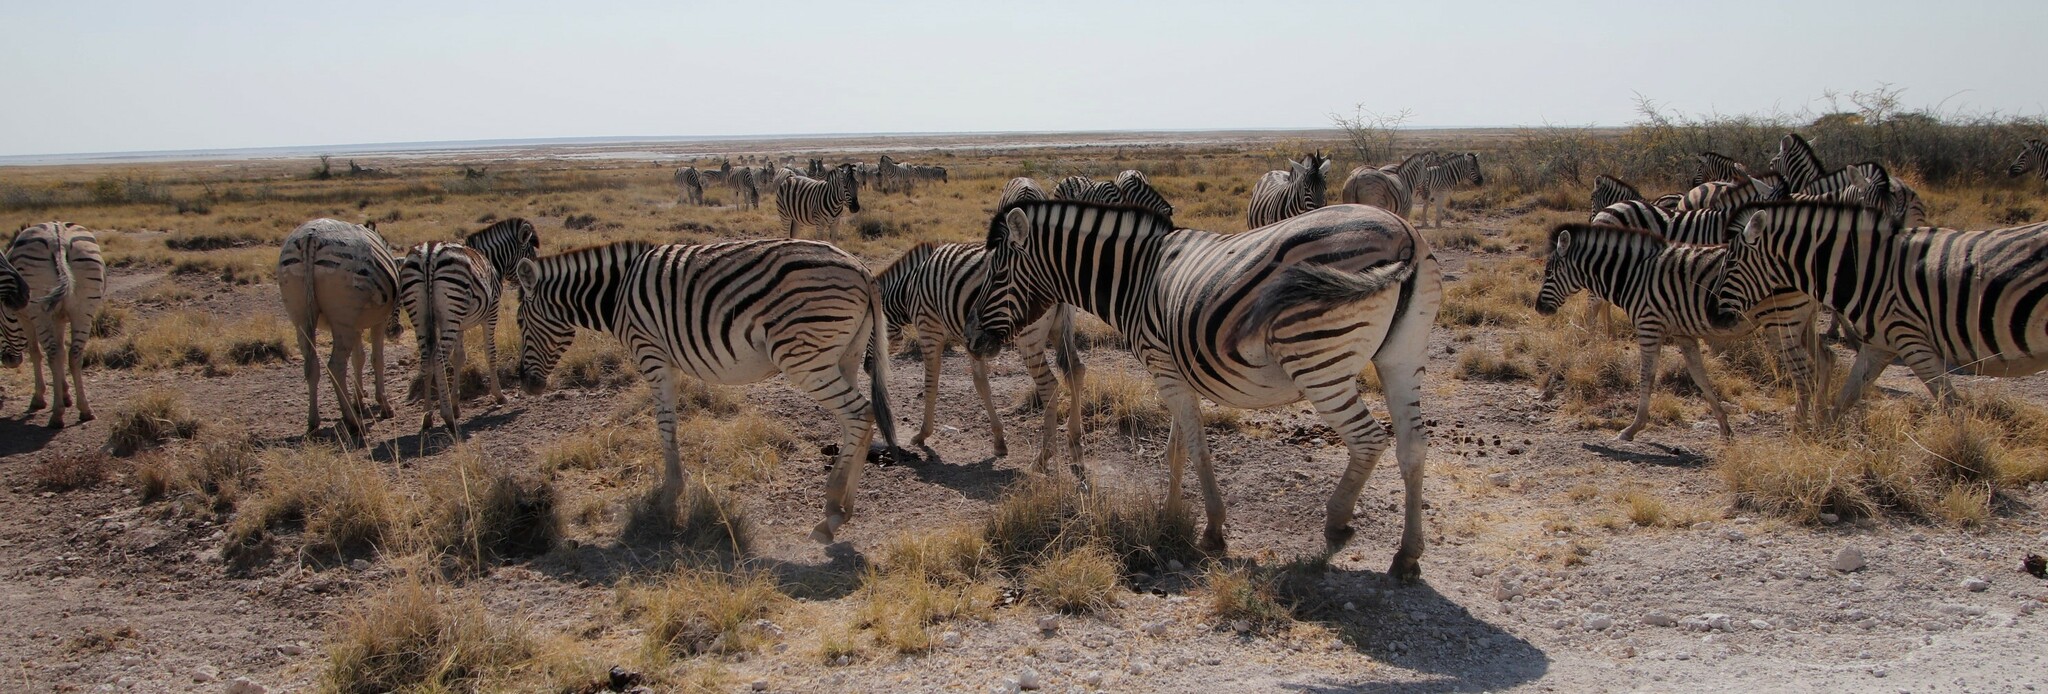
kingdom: Animalia
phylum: Chordata
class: Mammalia
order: Perissodactyla
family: Equidae
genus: Equus
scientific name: Equus quagga
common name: Plains zebra
